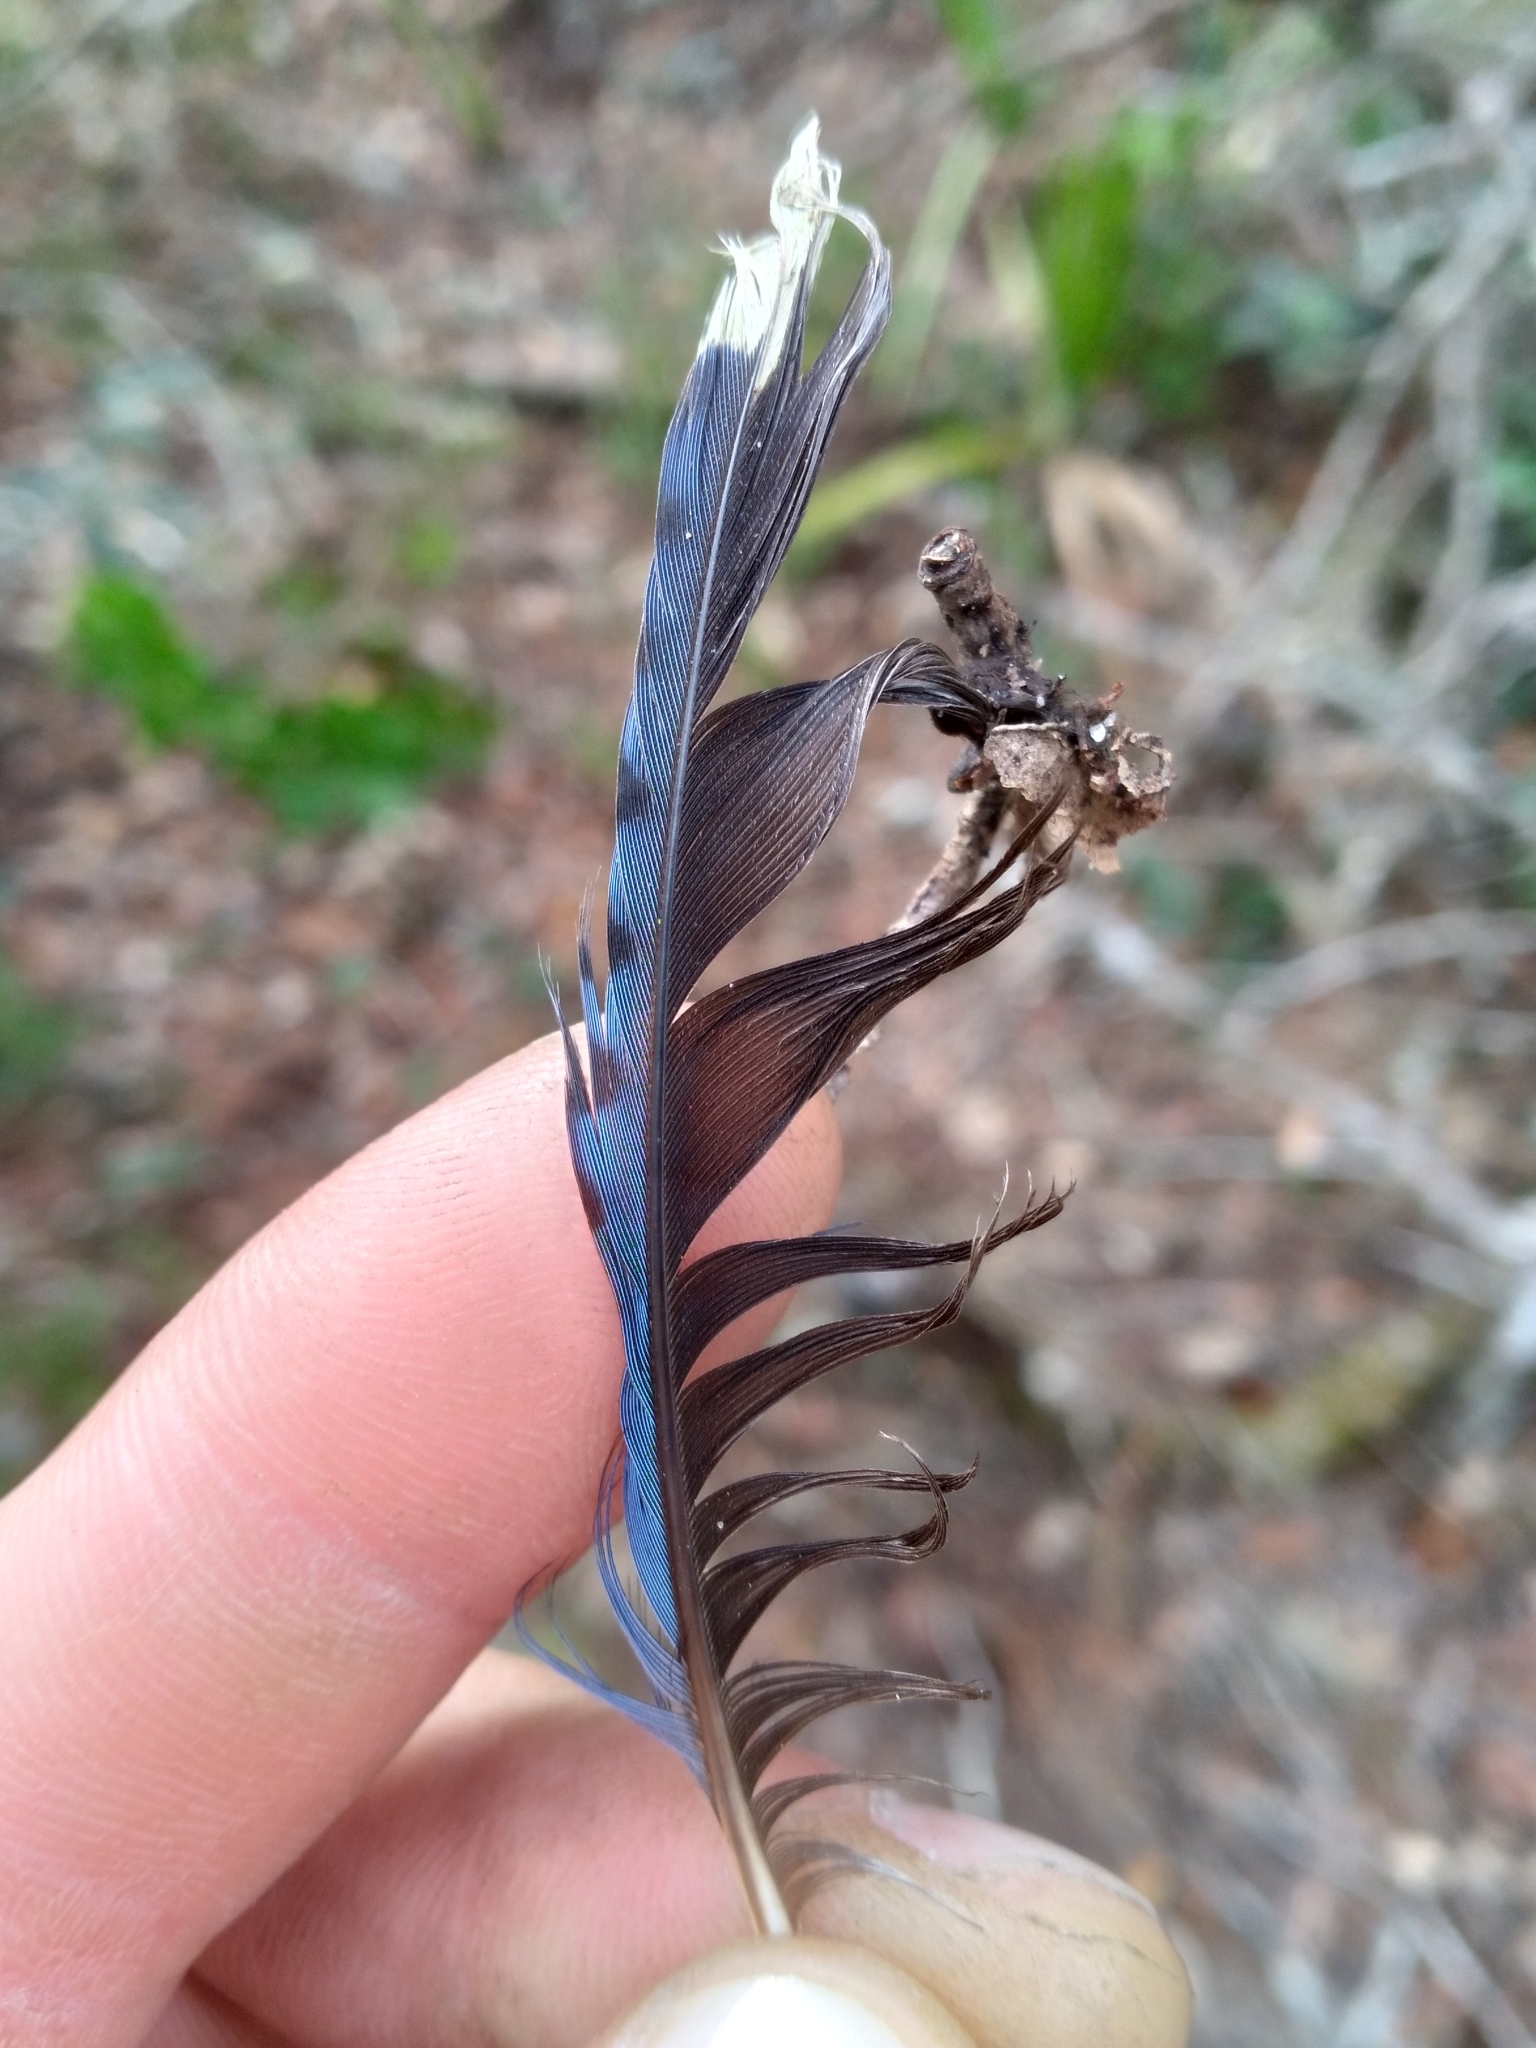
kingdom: Animalia
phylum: Chordata
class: Aves
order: Passeriformes
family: Corvidae
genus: Cyanocitta
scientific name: Cyanocitta cristata
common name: Blue jay
